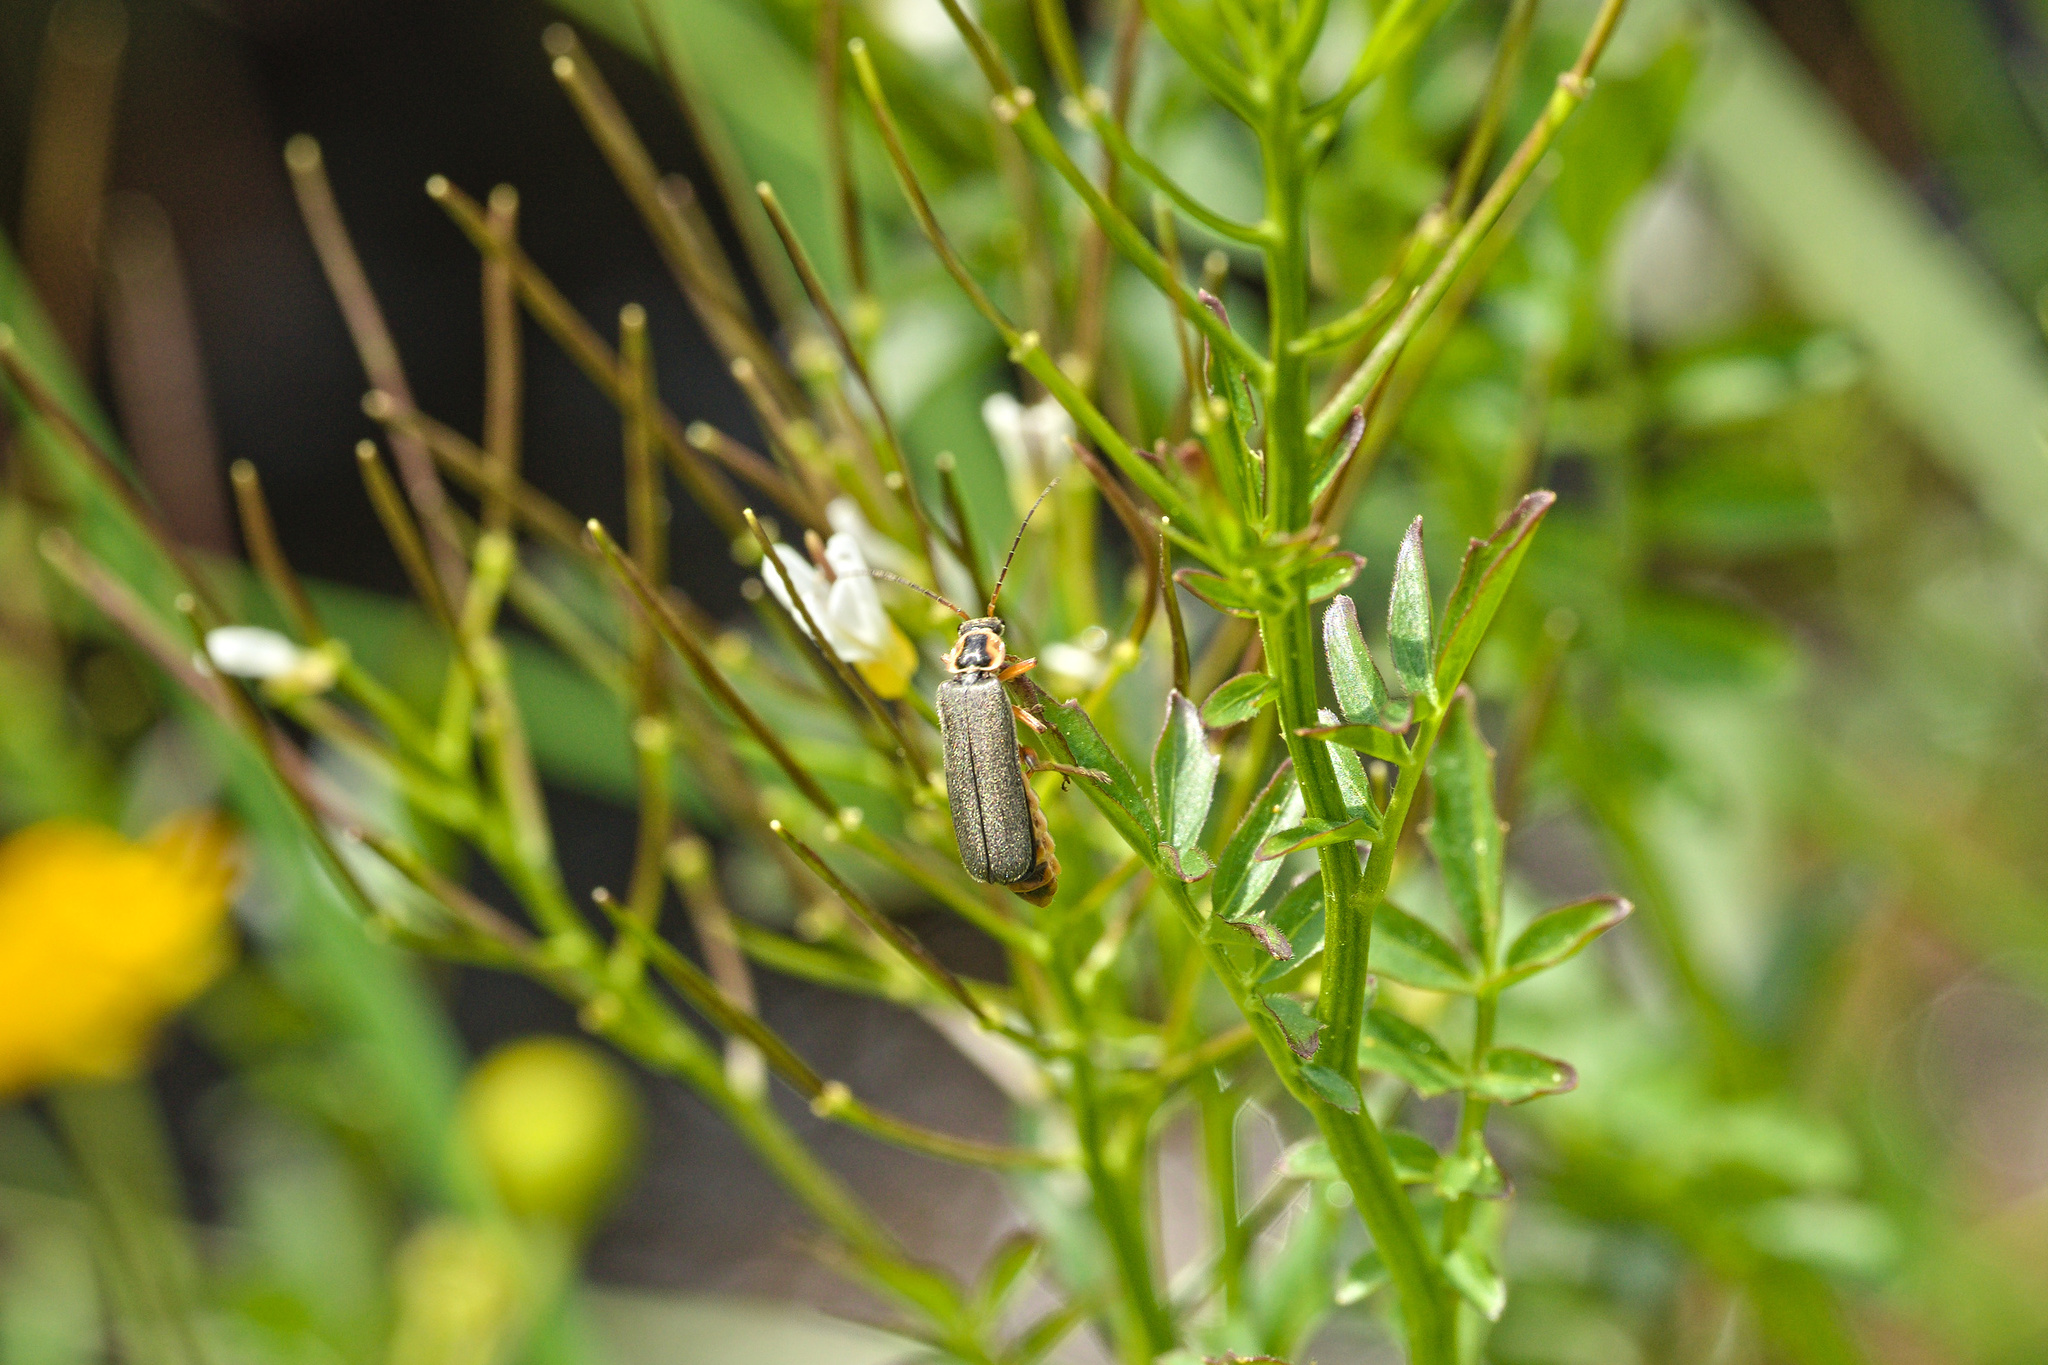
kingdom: Animalia
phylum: Arthropoda
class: Insecta
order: Coleoptera
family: Cantharidae
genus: Cantharis
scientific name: Cantharis nigricans
